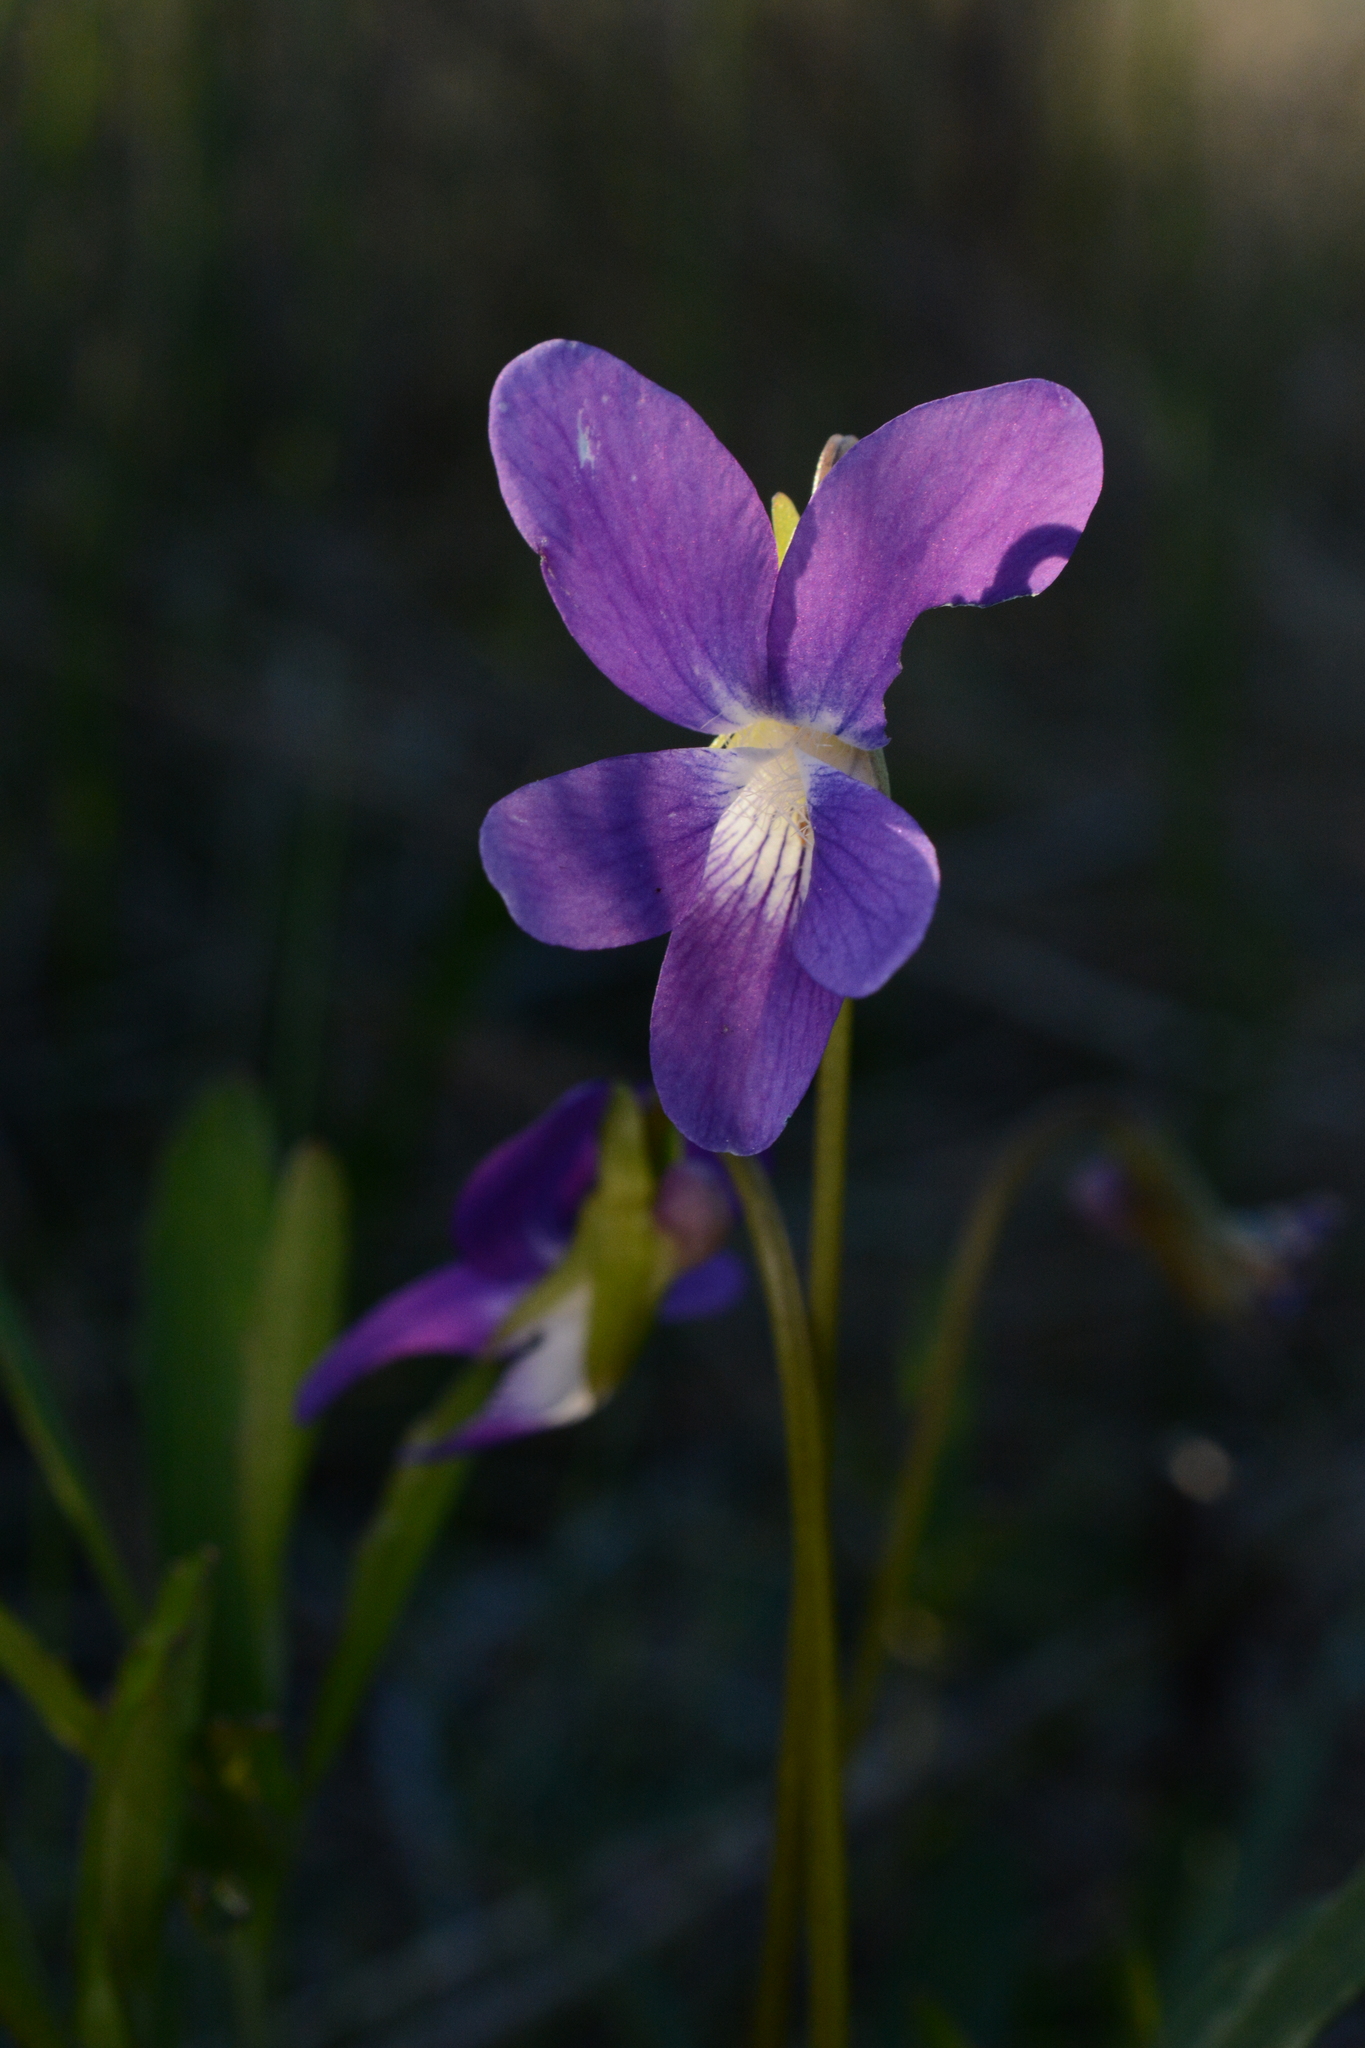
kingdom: Plantae
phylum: Tracheophyta
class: Magnoliopsida
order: Malpighiales
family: Violaceae
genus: Viola
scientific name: Viola septemloba
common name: Southern coast violet
